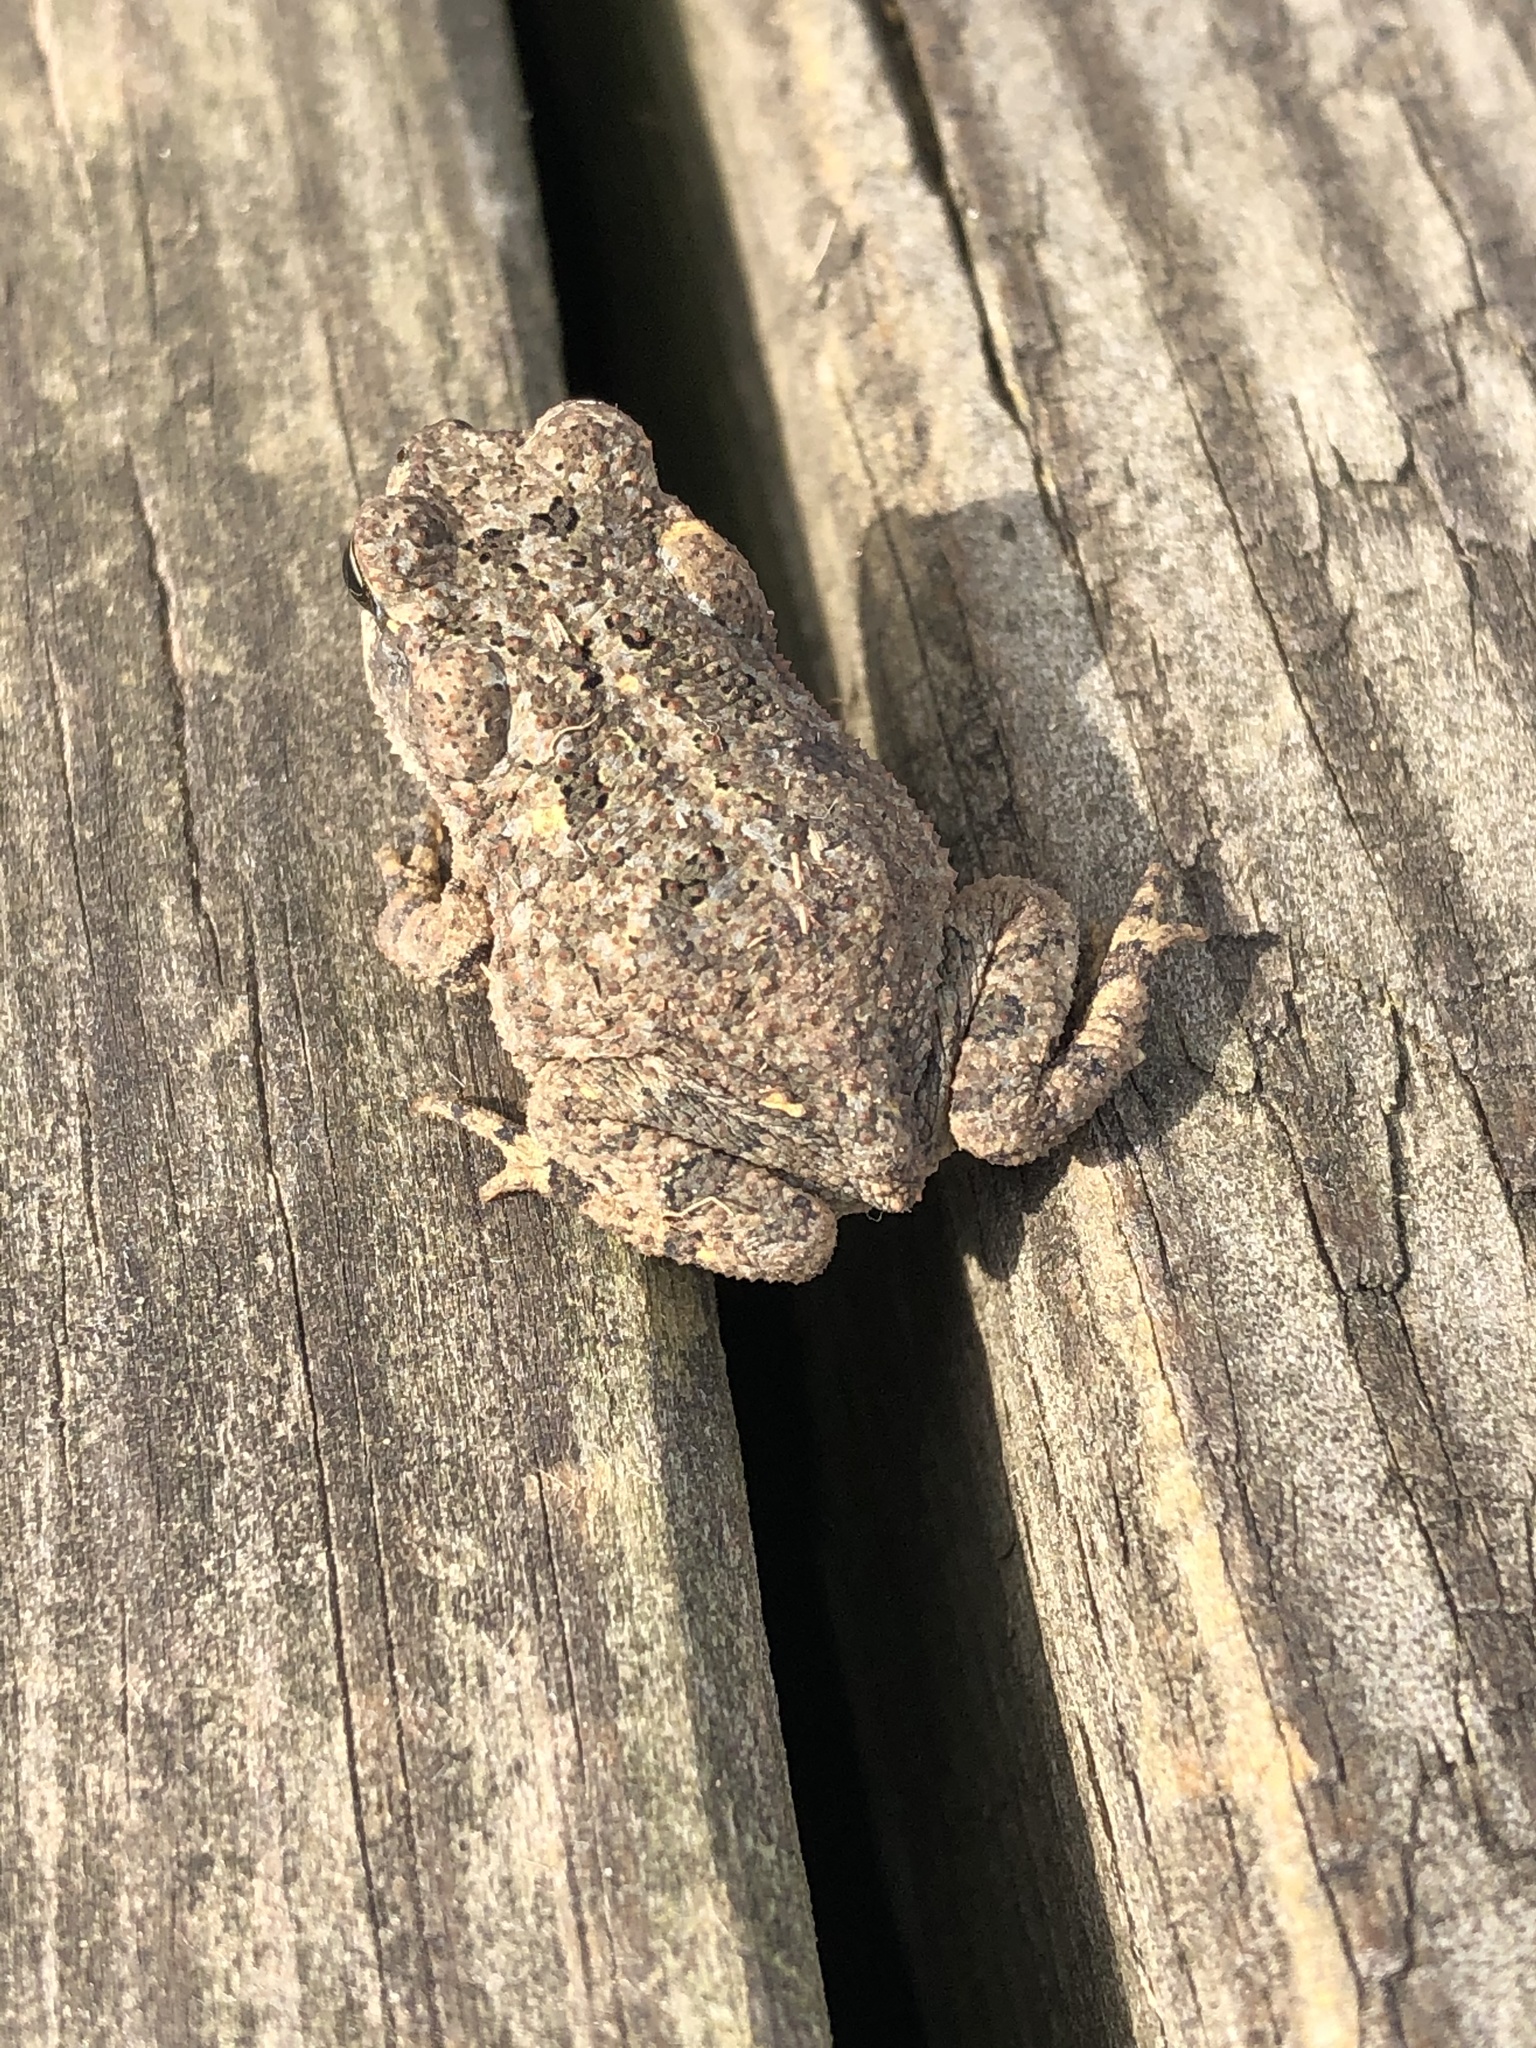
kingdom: Animalia
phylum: Chordata
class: Amphibia
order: Anura
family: Bufonidae
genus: Incilius
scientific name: Incilius nebulifer
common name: Gulf coast toad
